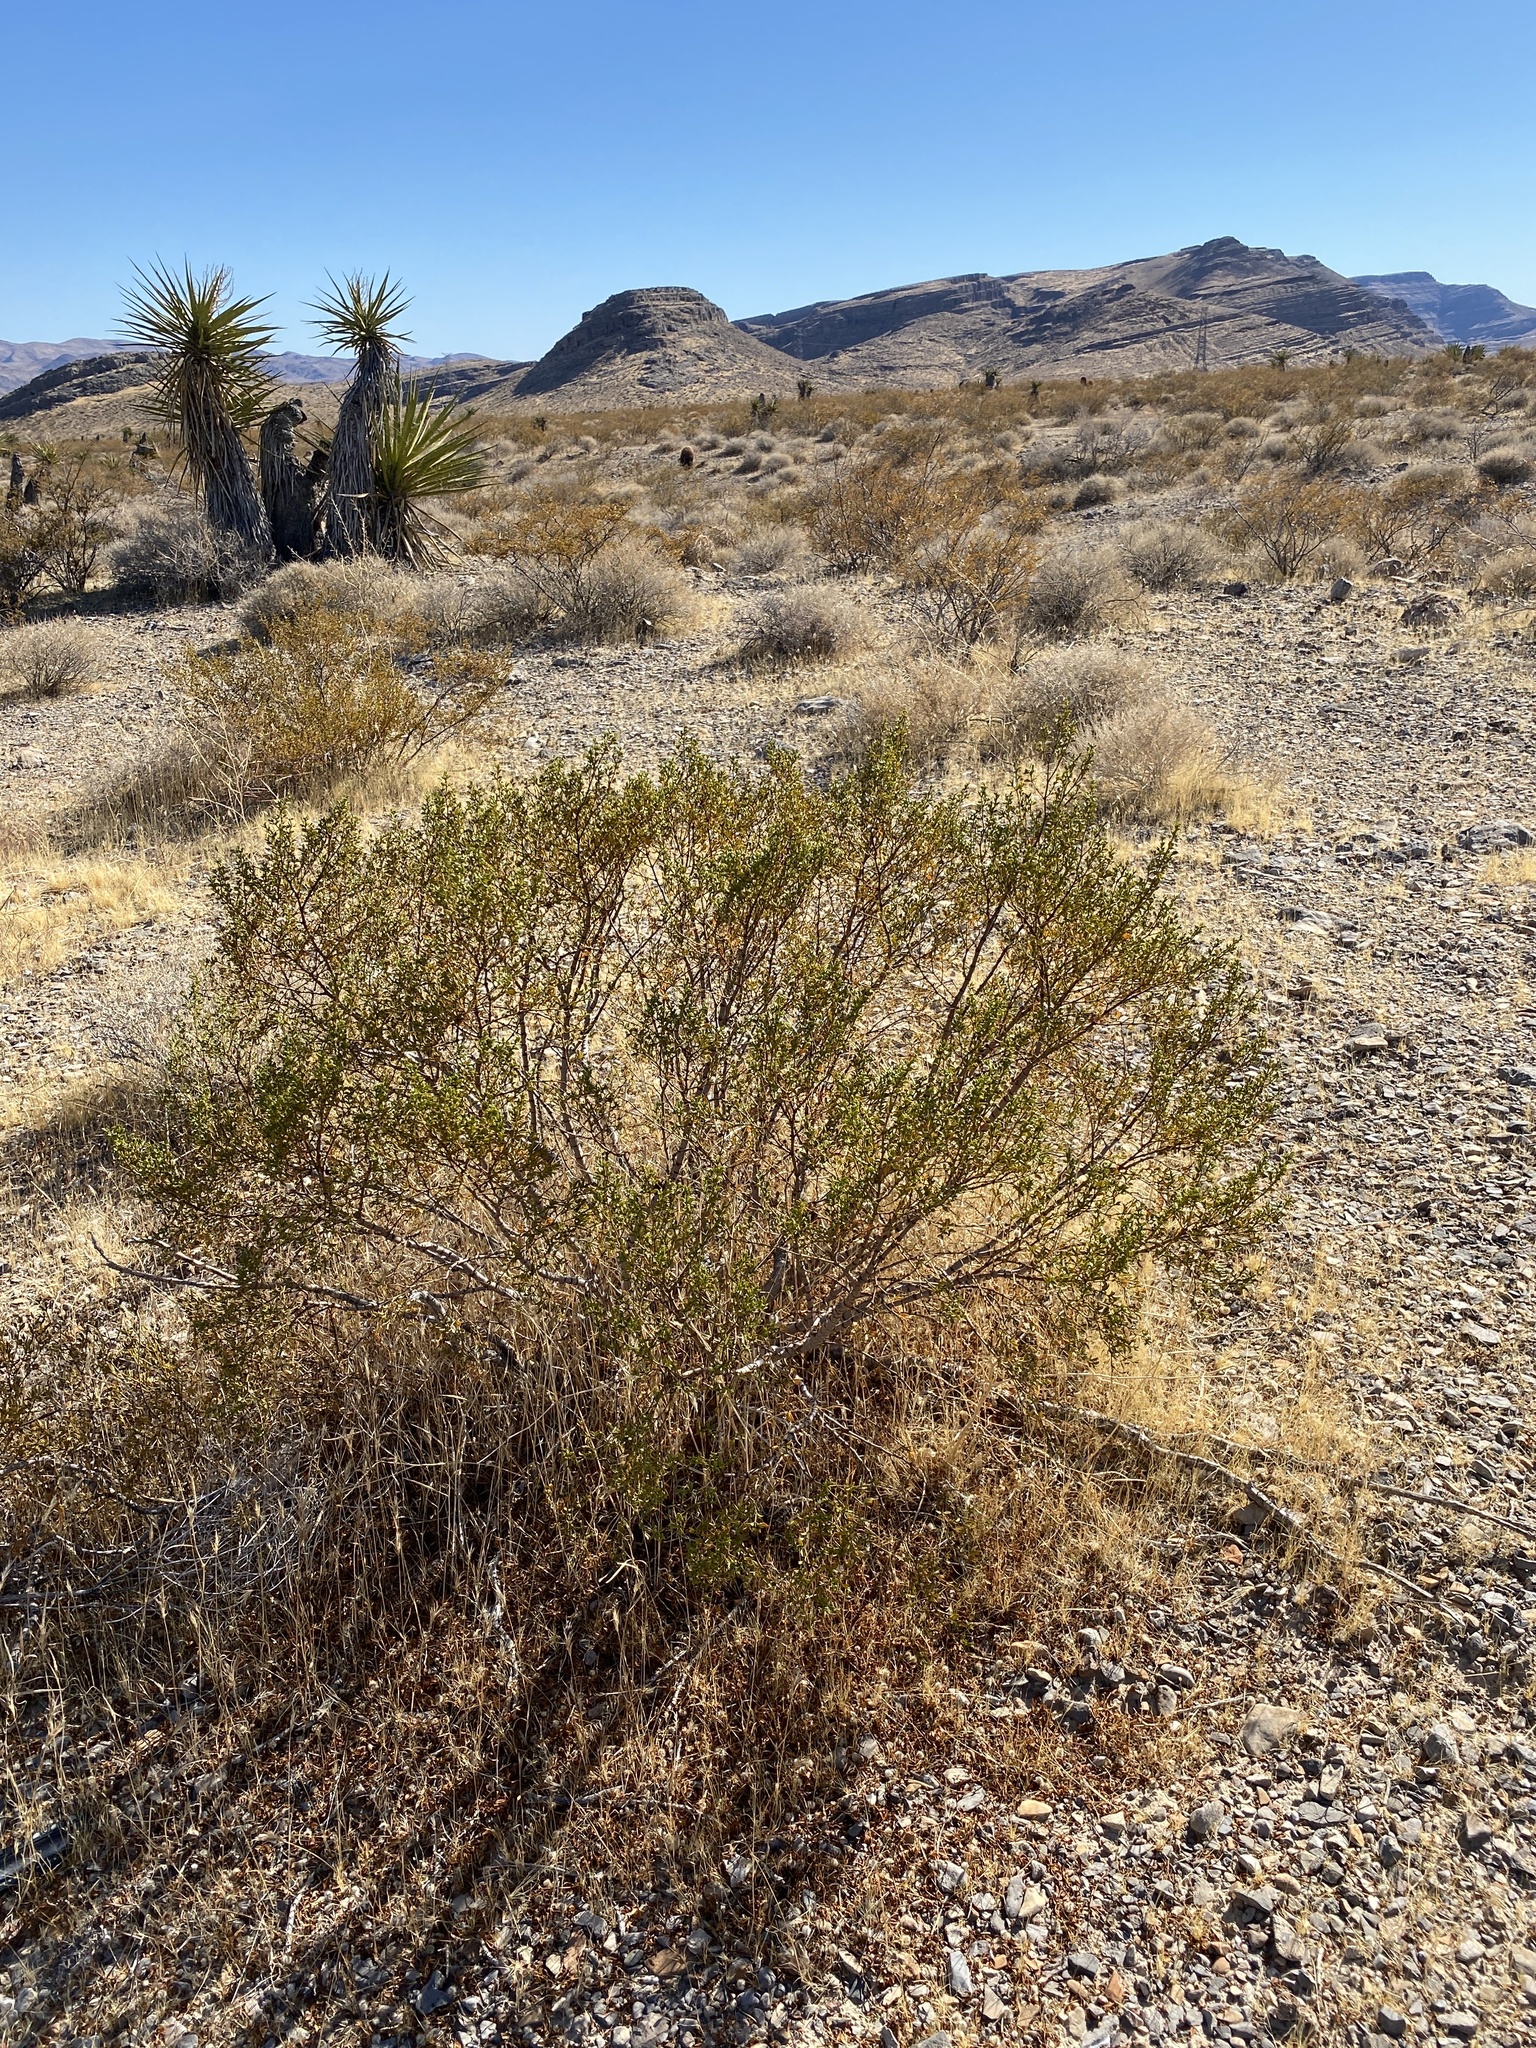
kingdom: Plantae
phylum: Tracheophyta
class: Magnoliopsida
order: Zygophyllales
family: Zygophyllaceae
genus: Larrea
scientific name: Larrea tridentata
